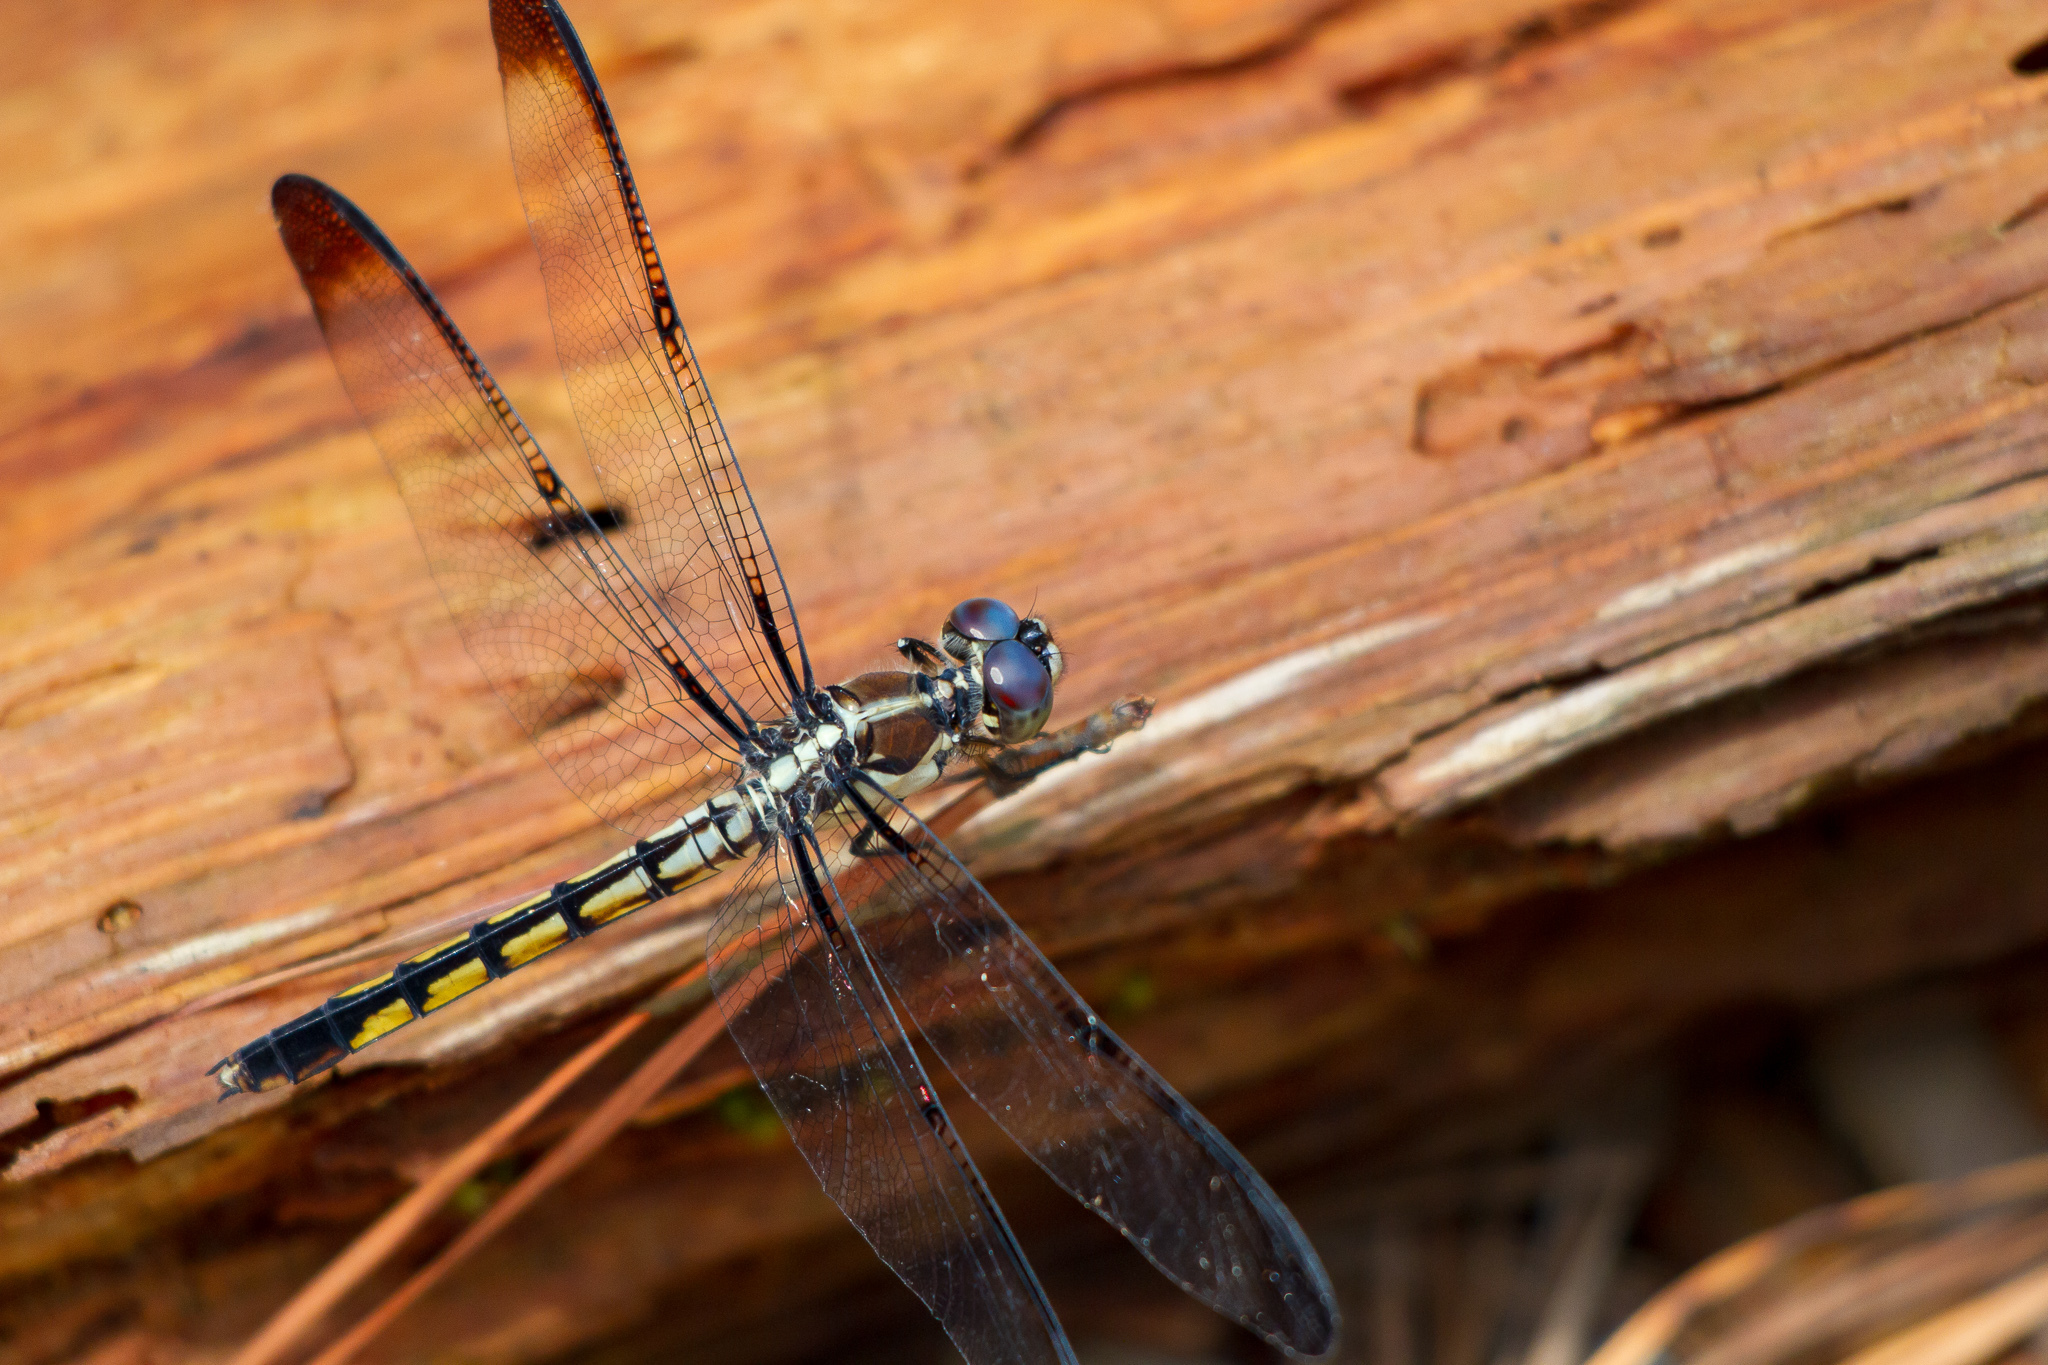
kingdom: Animalia
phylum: Arthropoda
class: Insecta
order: Odonata
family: Libellulidae
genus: Libellula
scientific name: Libellula vibrans
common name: Great blue skimmer
